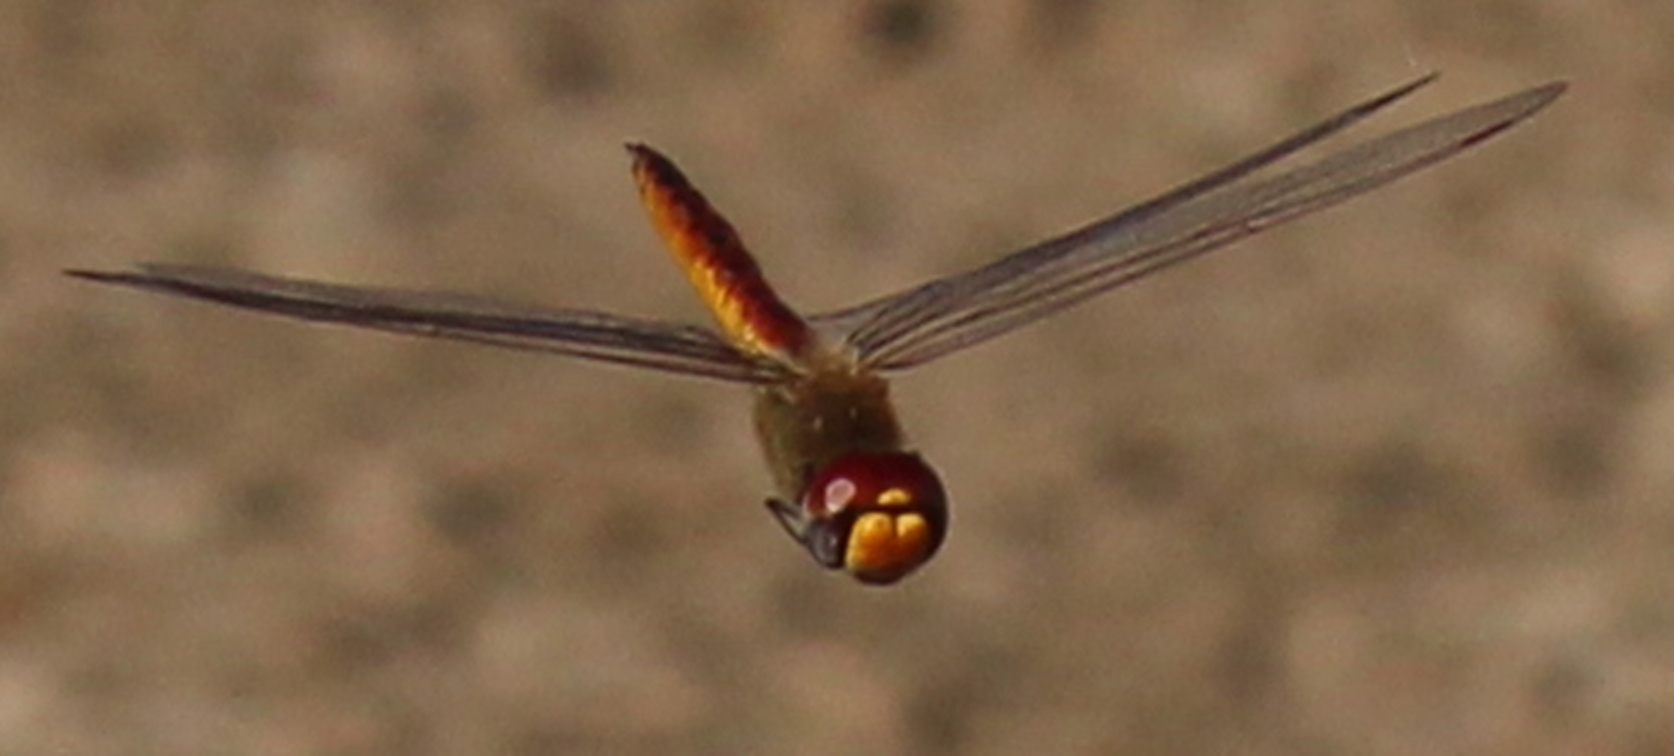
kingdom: Animalia
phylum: Arthropoda
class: Insecta
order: Odonata
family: Libellulidae
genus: Pantala
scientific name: Pantala flavescens
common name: Wandering glider
